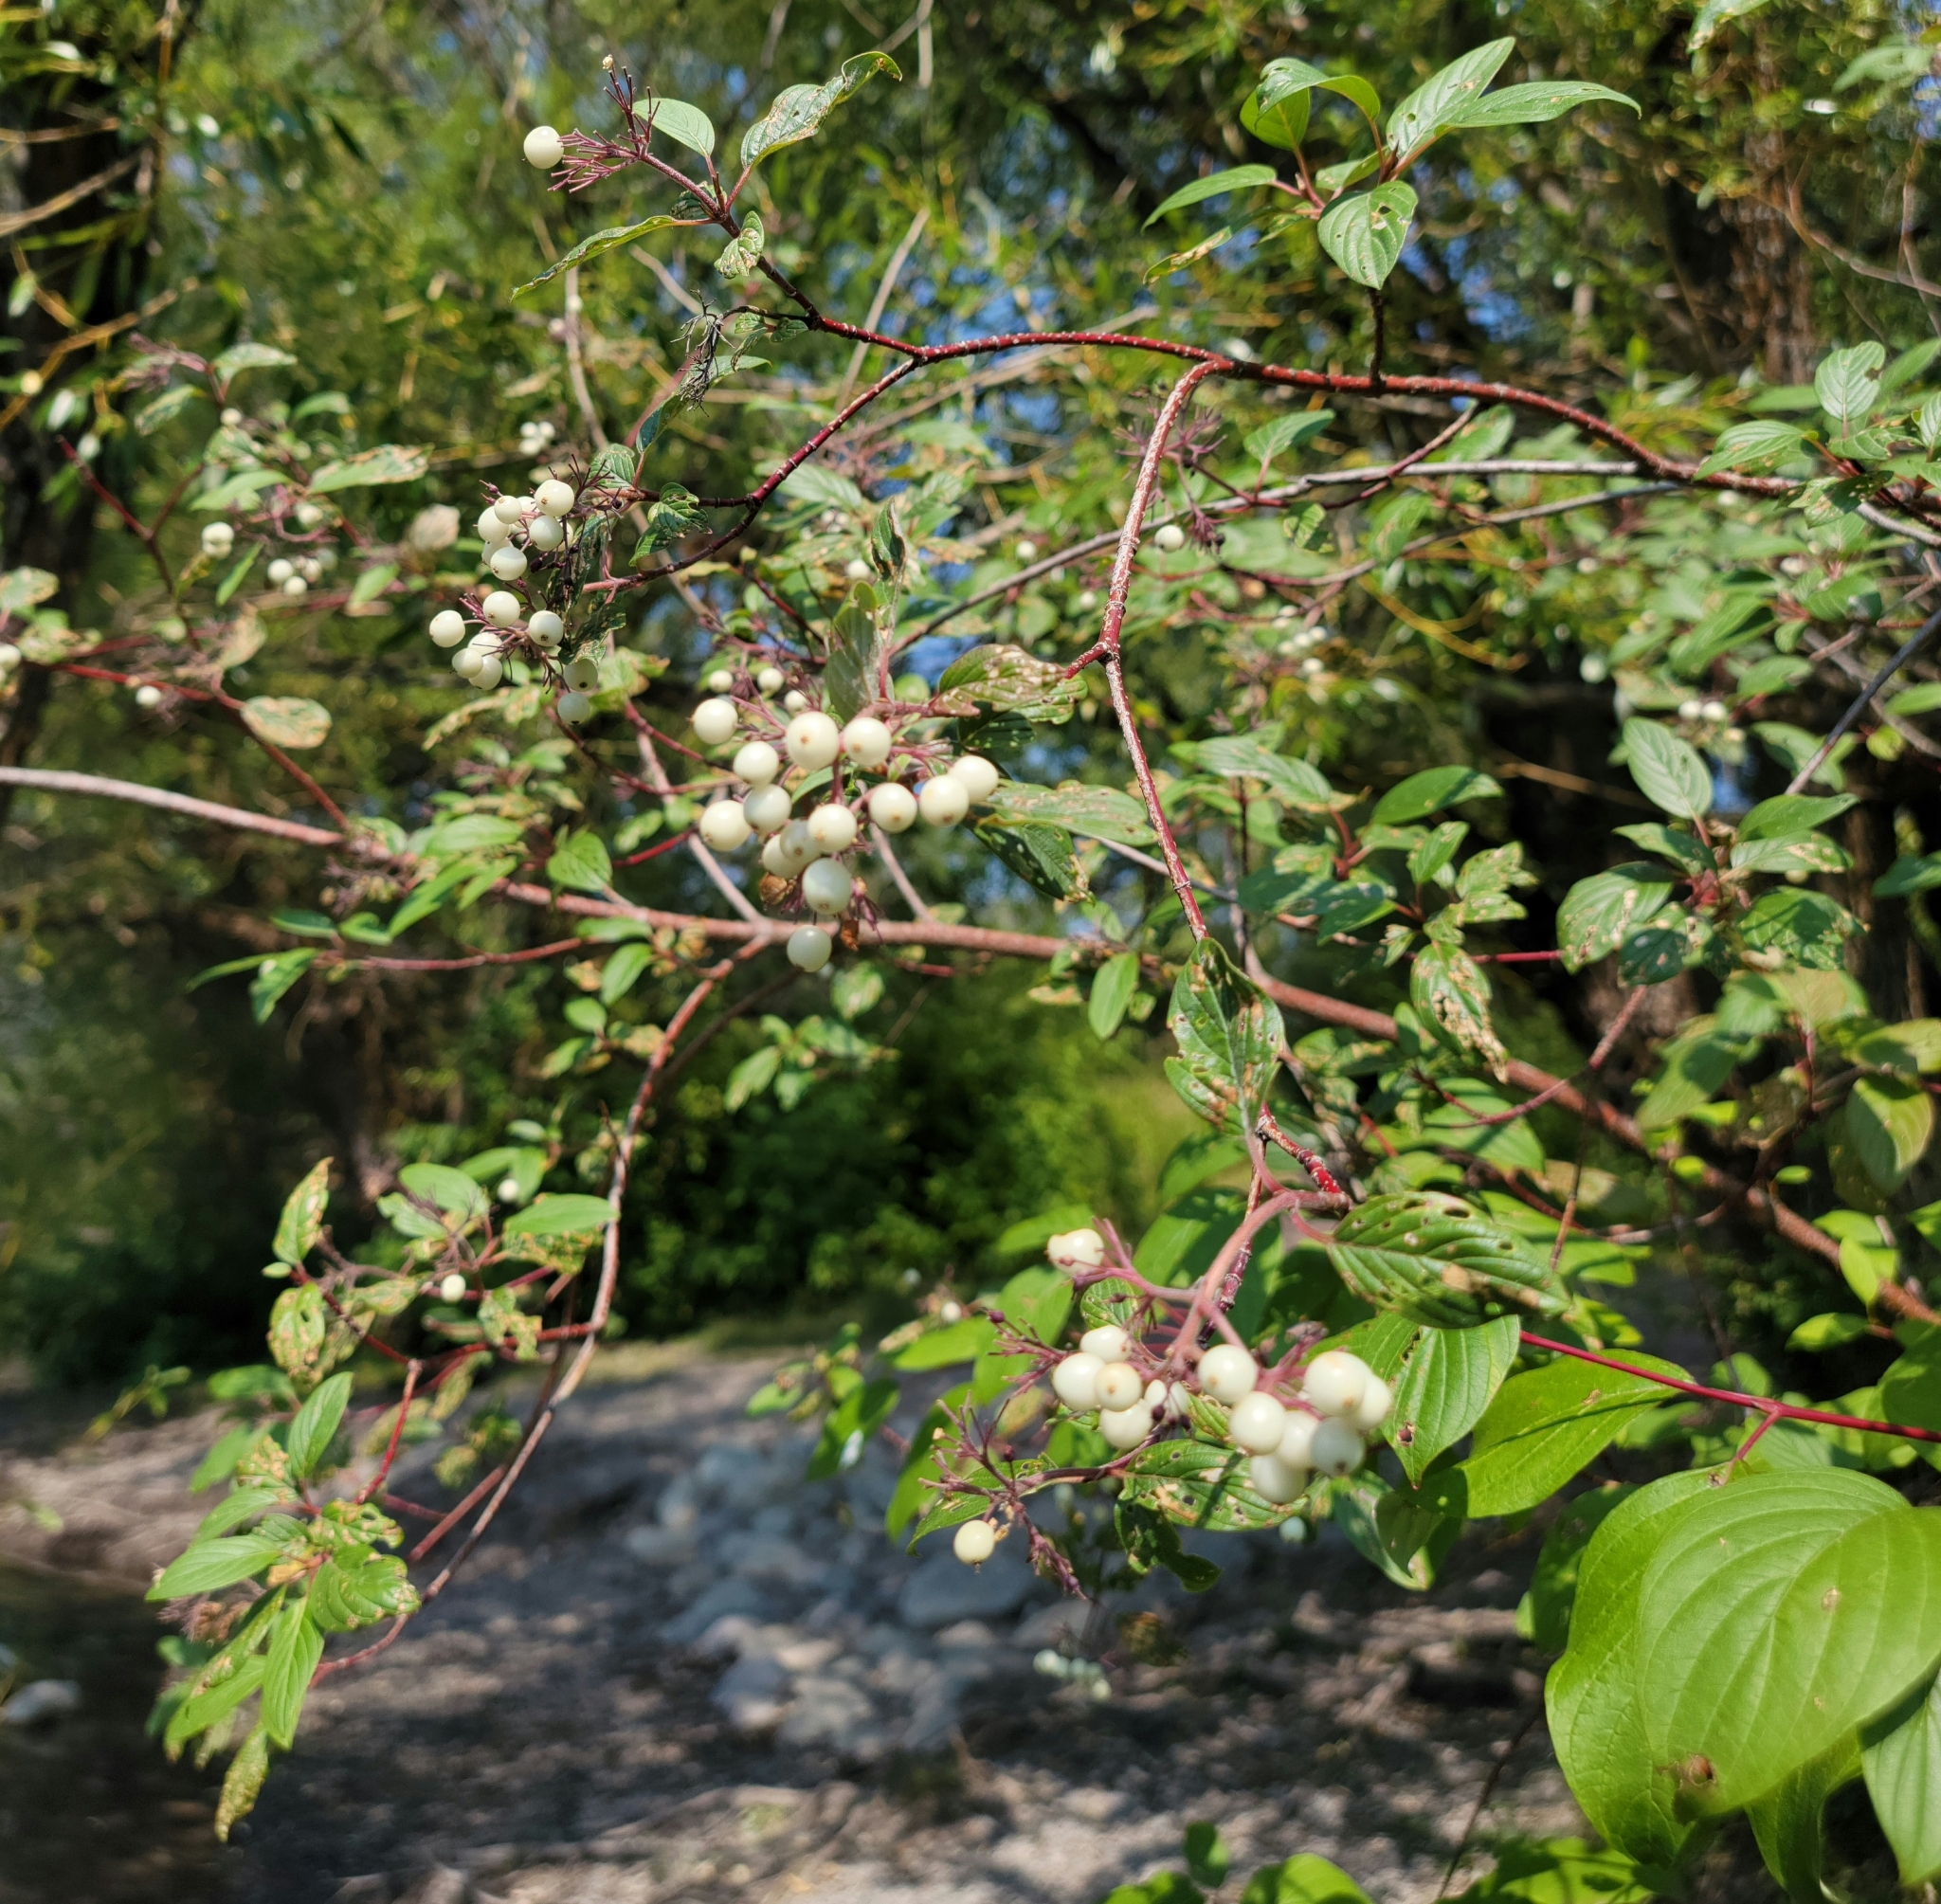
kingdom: Plantae
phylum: Tracheophyta
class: Magnoliopsida
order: Cornales
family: Cornaceae
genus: Cornus
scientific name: Cornus sericea
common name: Red-osier dogwood
